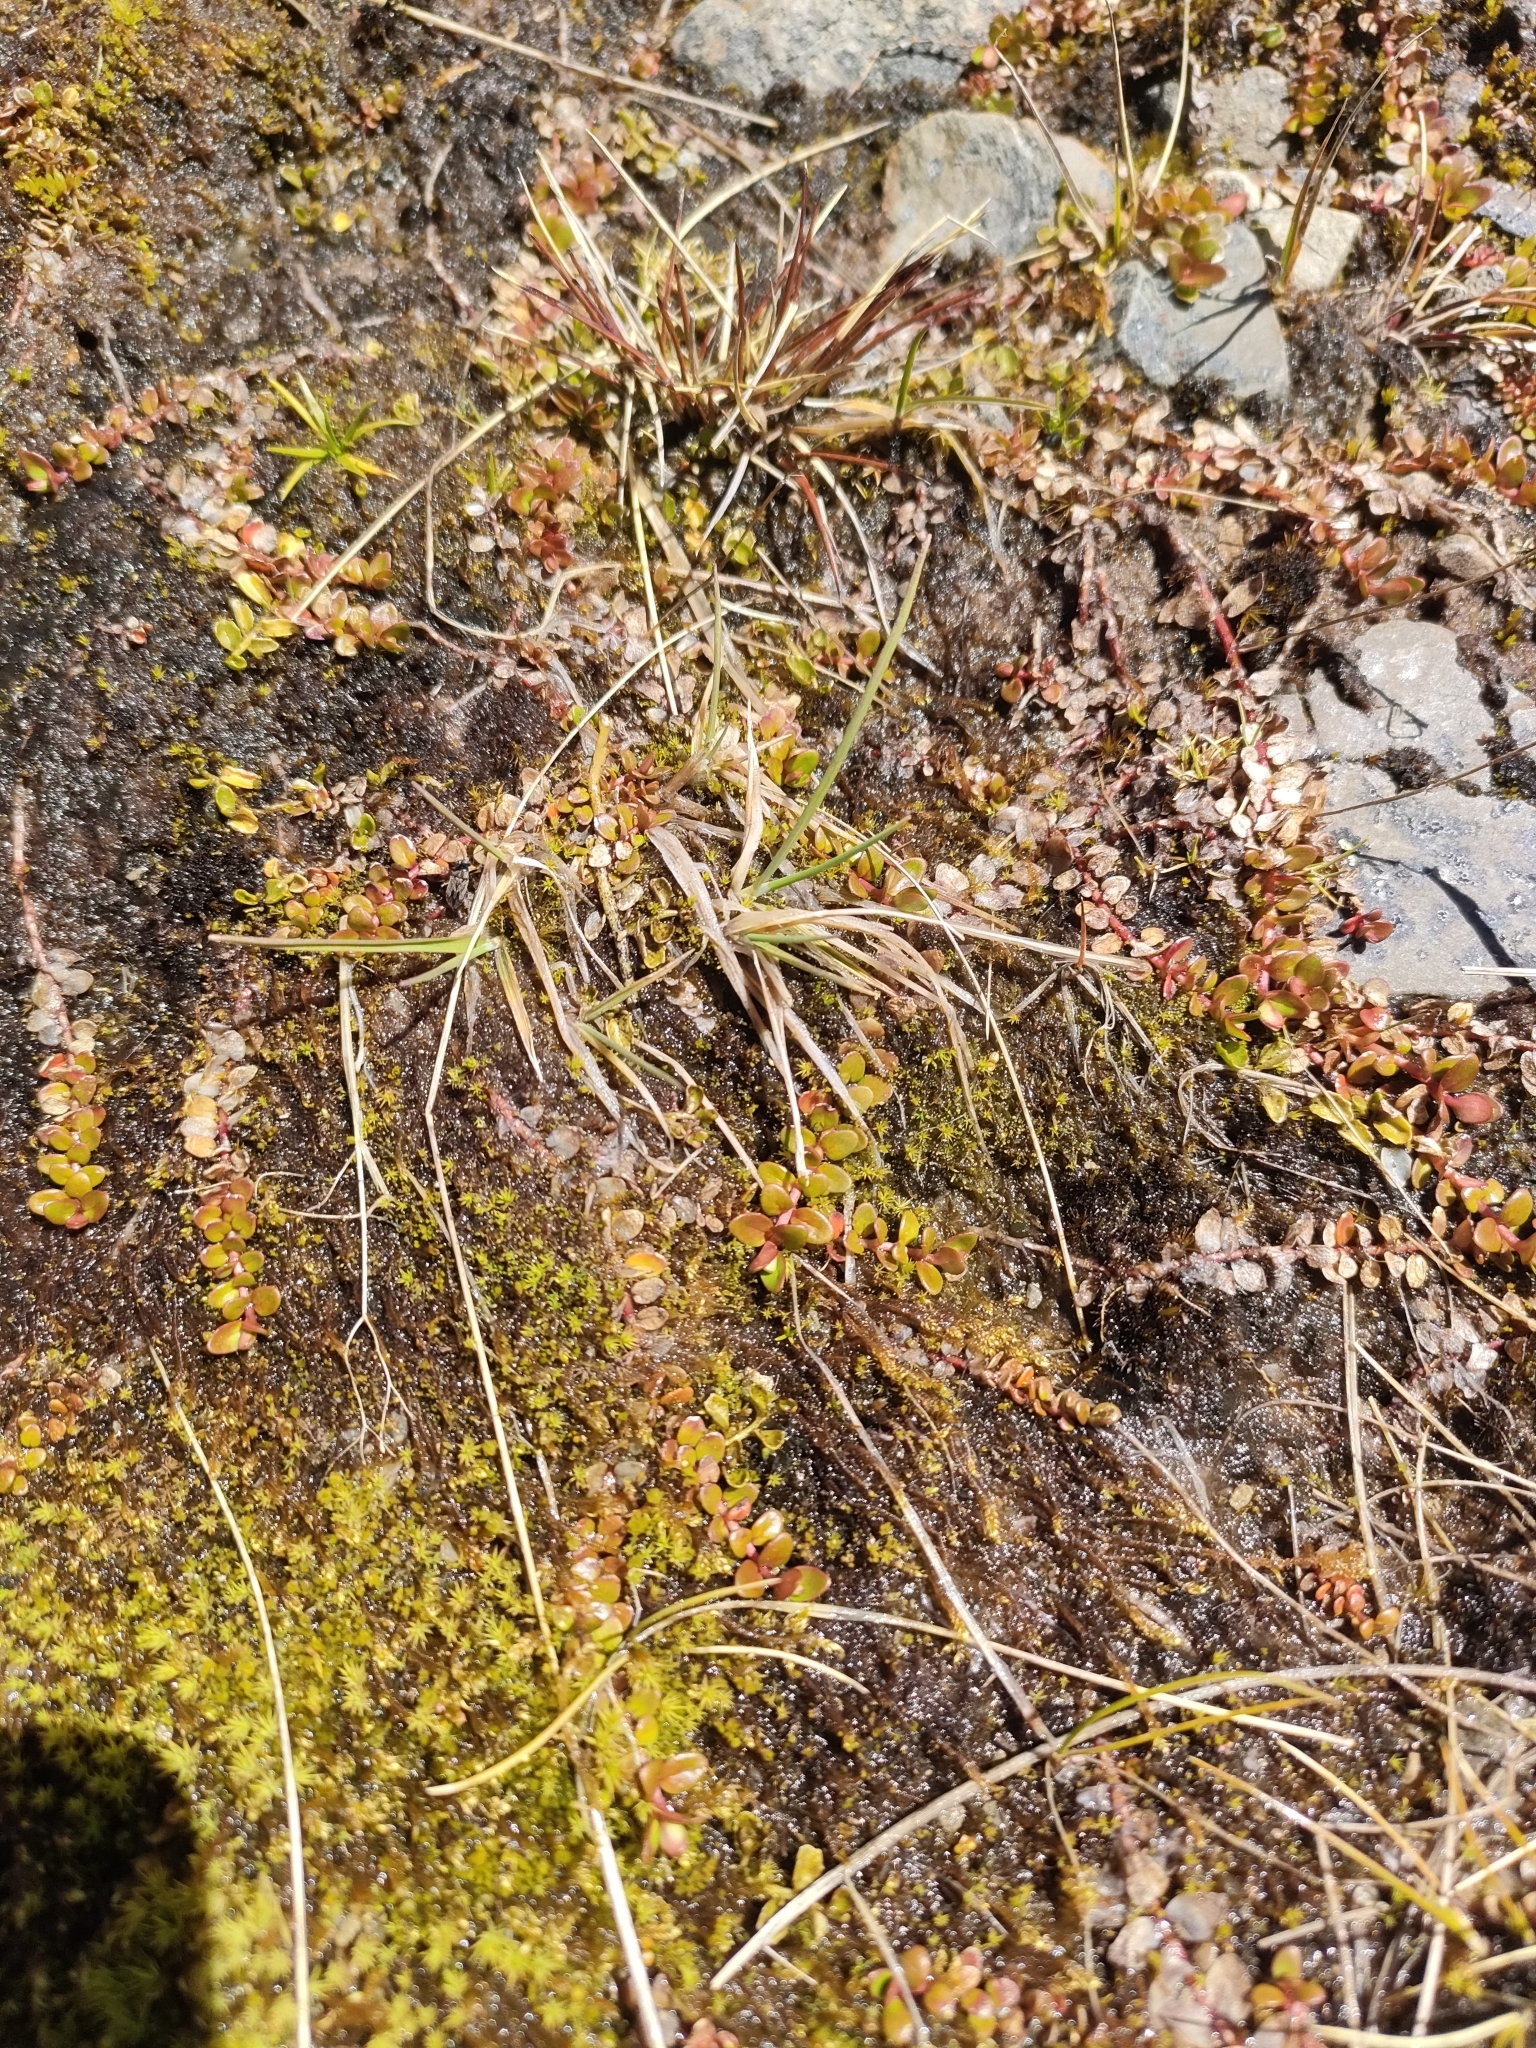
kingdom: Plantae
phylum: Tracheophyta
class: Magnoliopsida
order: Myrtales
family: Onagraceae
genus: Epilobium
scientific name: Epilobium brunnescens
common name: New zealand willowherb
